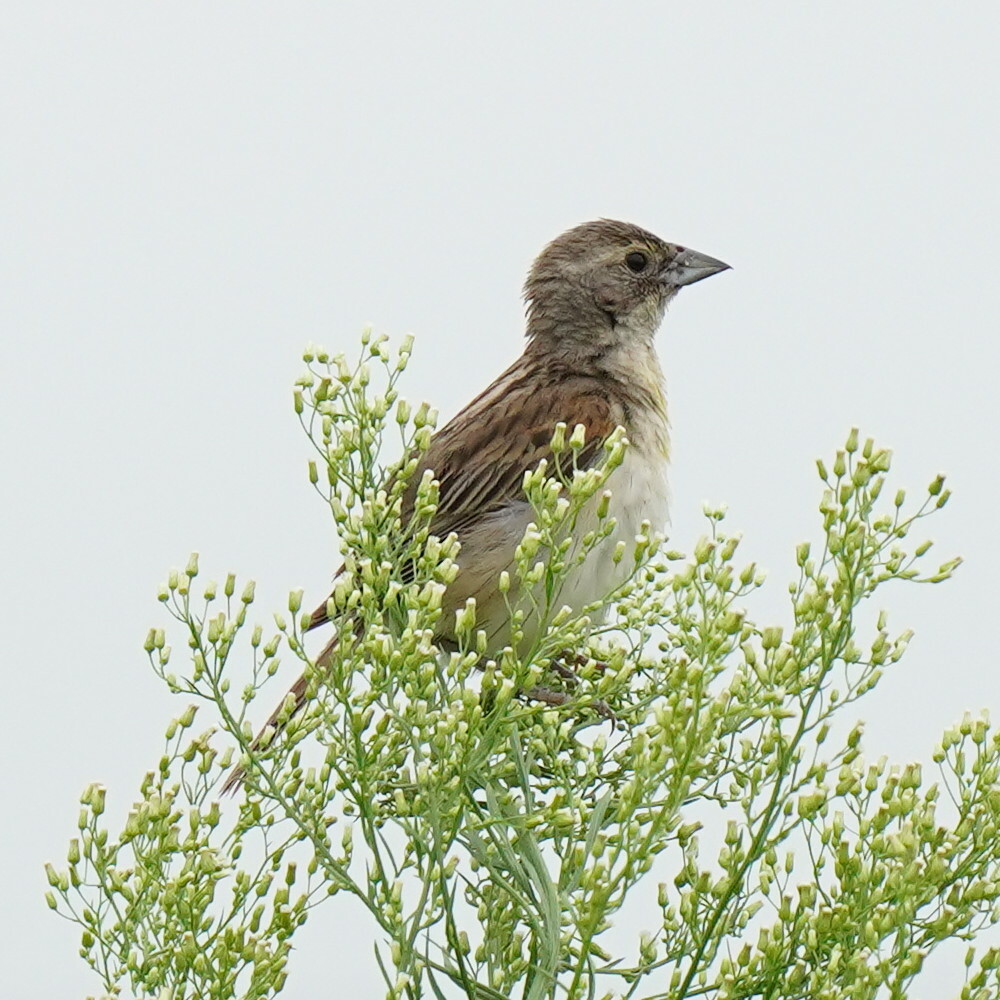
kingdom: Animalia
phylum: Chordata
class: Aves
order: Passeriformes
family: Cardinalidae
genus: Spiza
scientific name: Spiza americana
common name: Dickcissel
